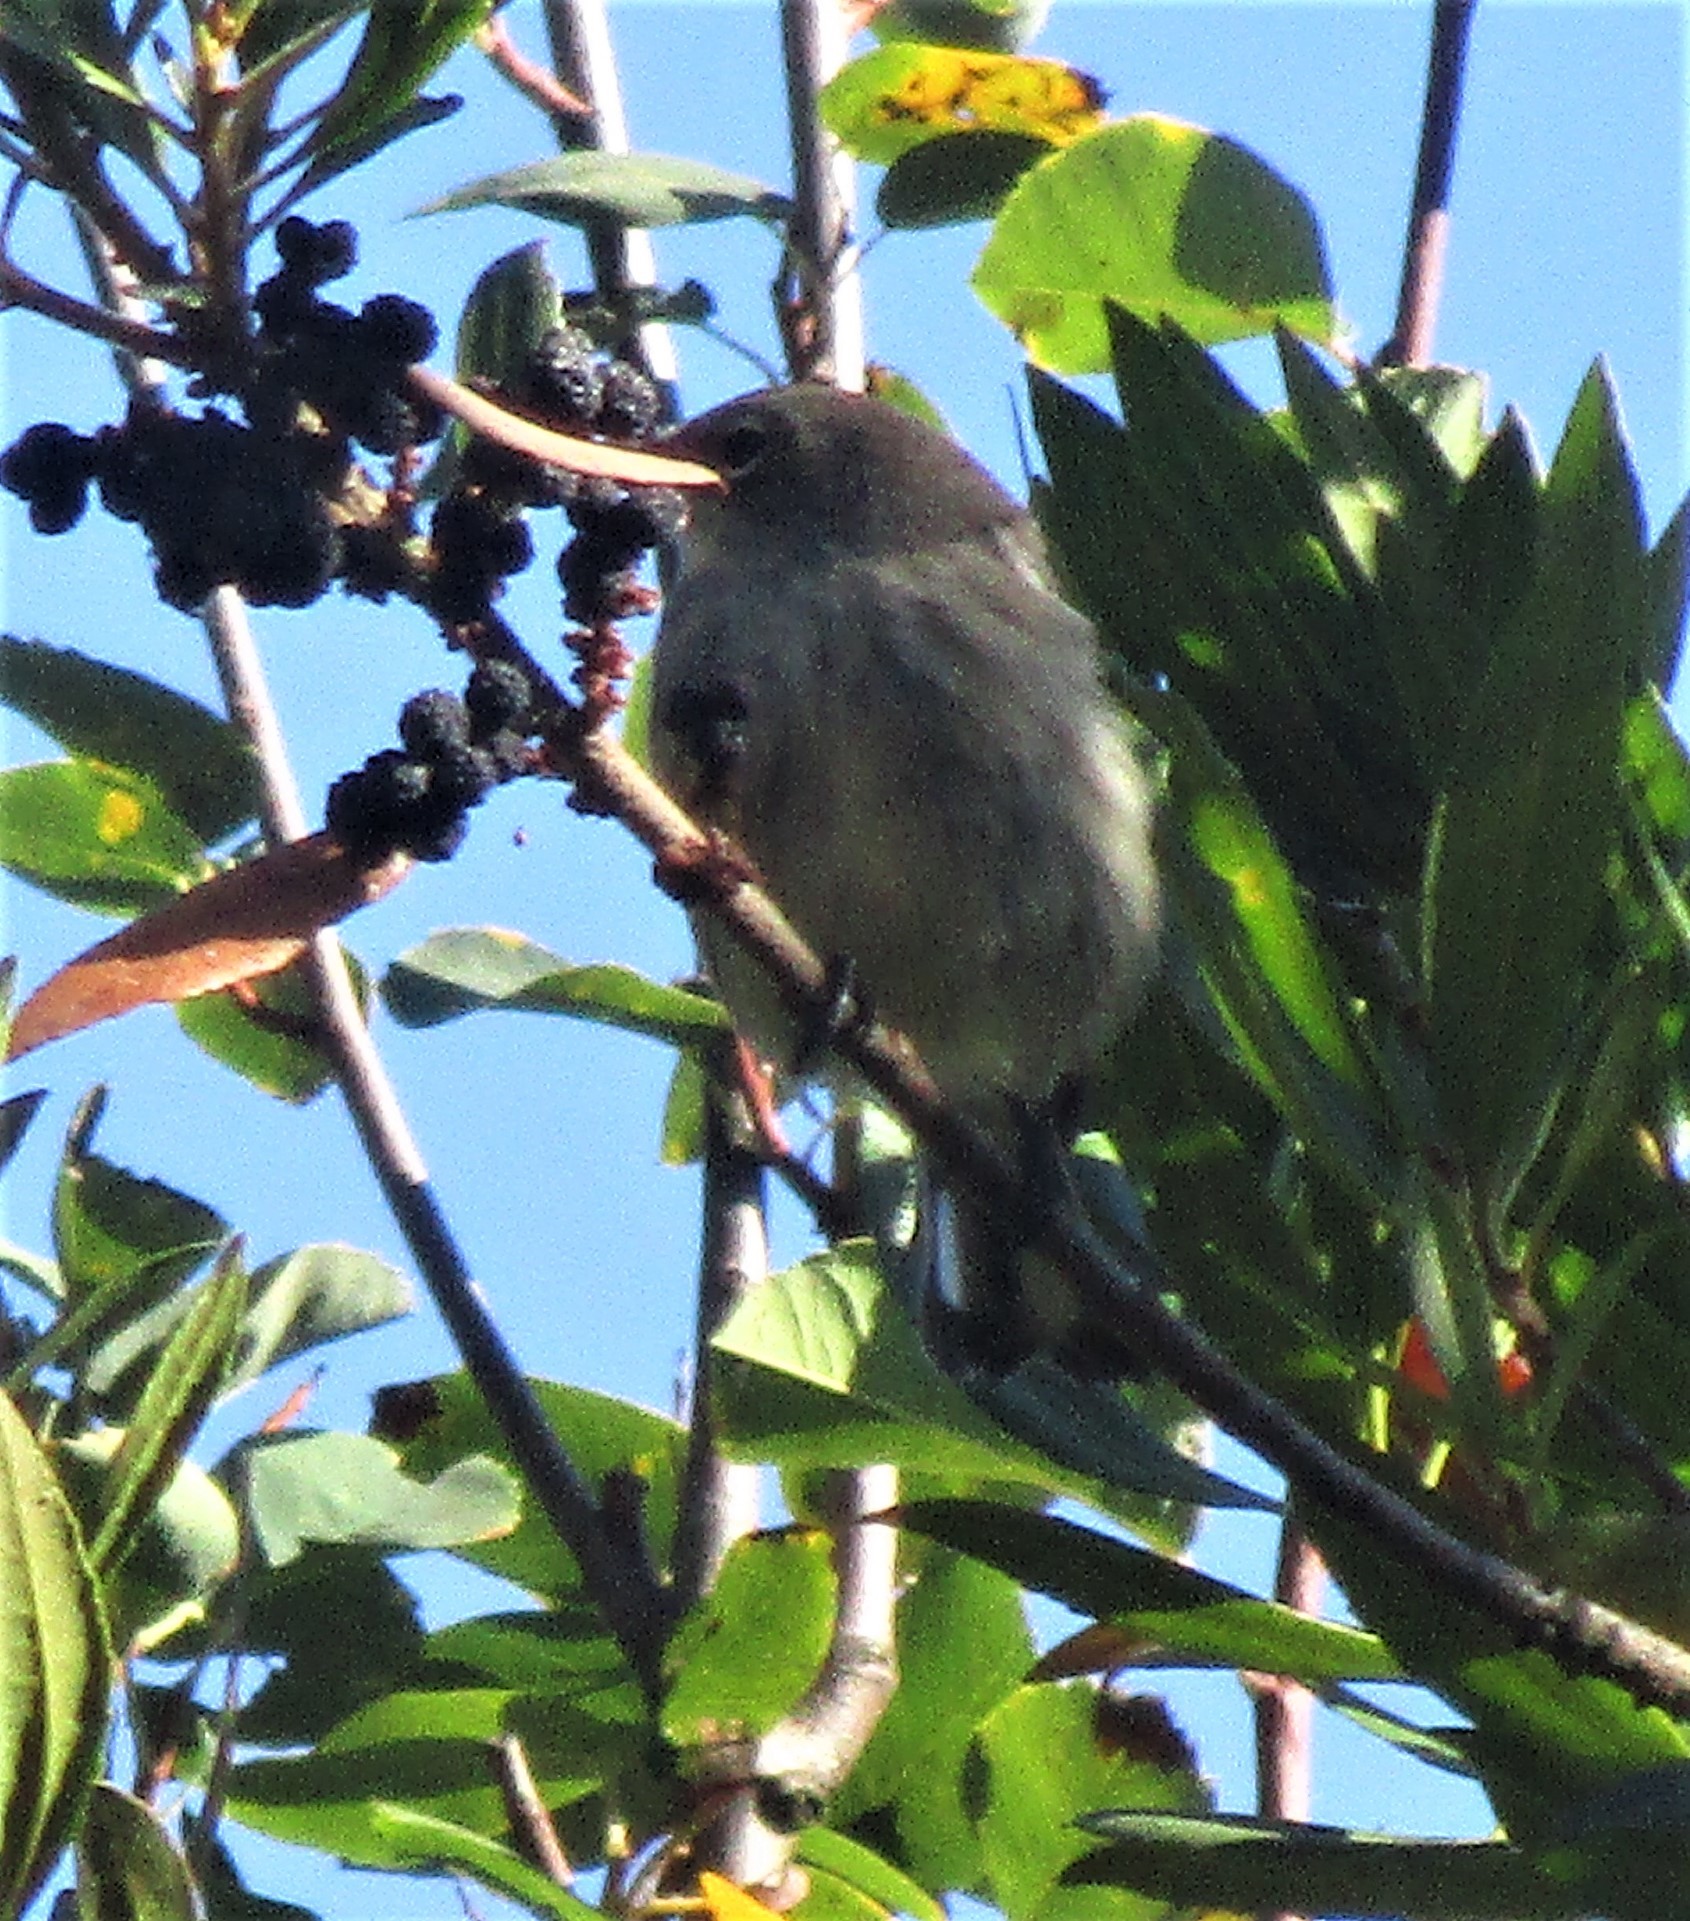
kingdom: Animalia
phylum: Chordata
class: Aves
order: Passeriformes
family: Parulidae
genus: Setophaga
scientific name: Setophaga coronata
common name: Myrtle warbler
